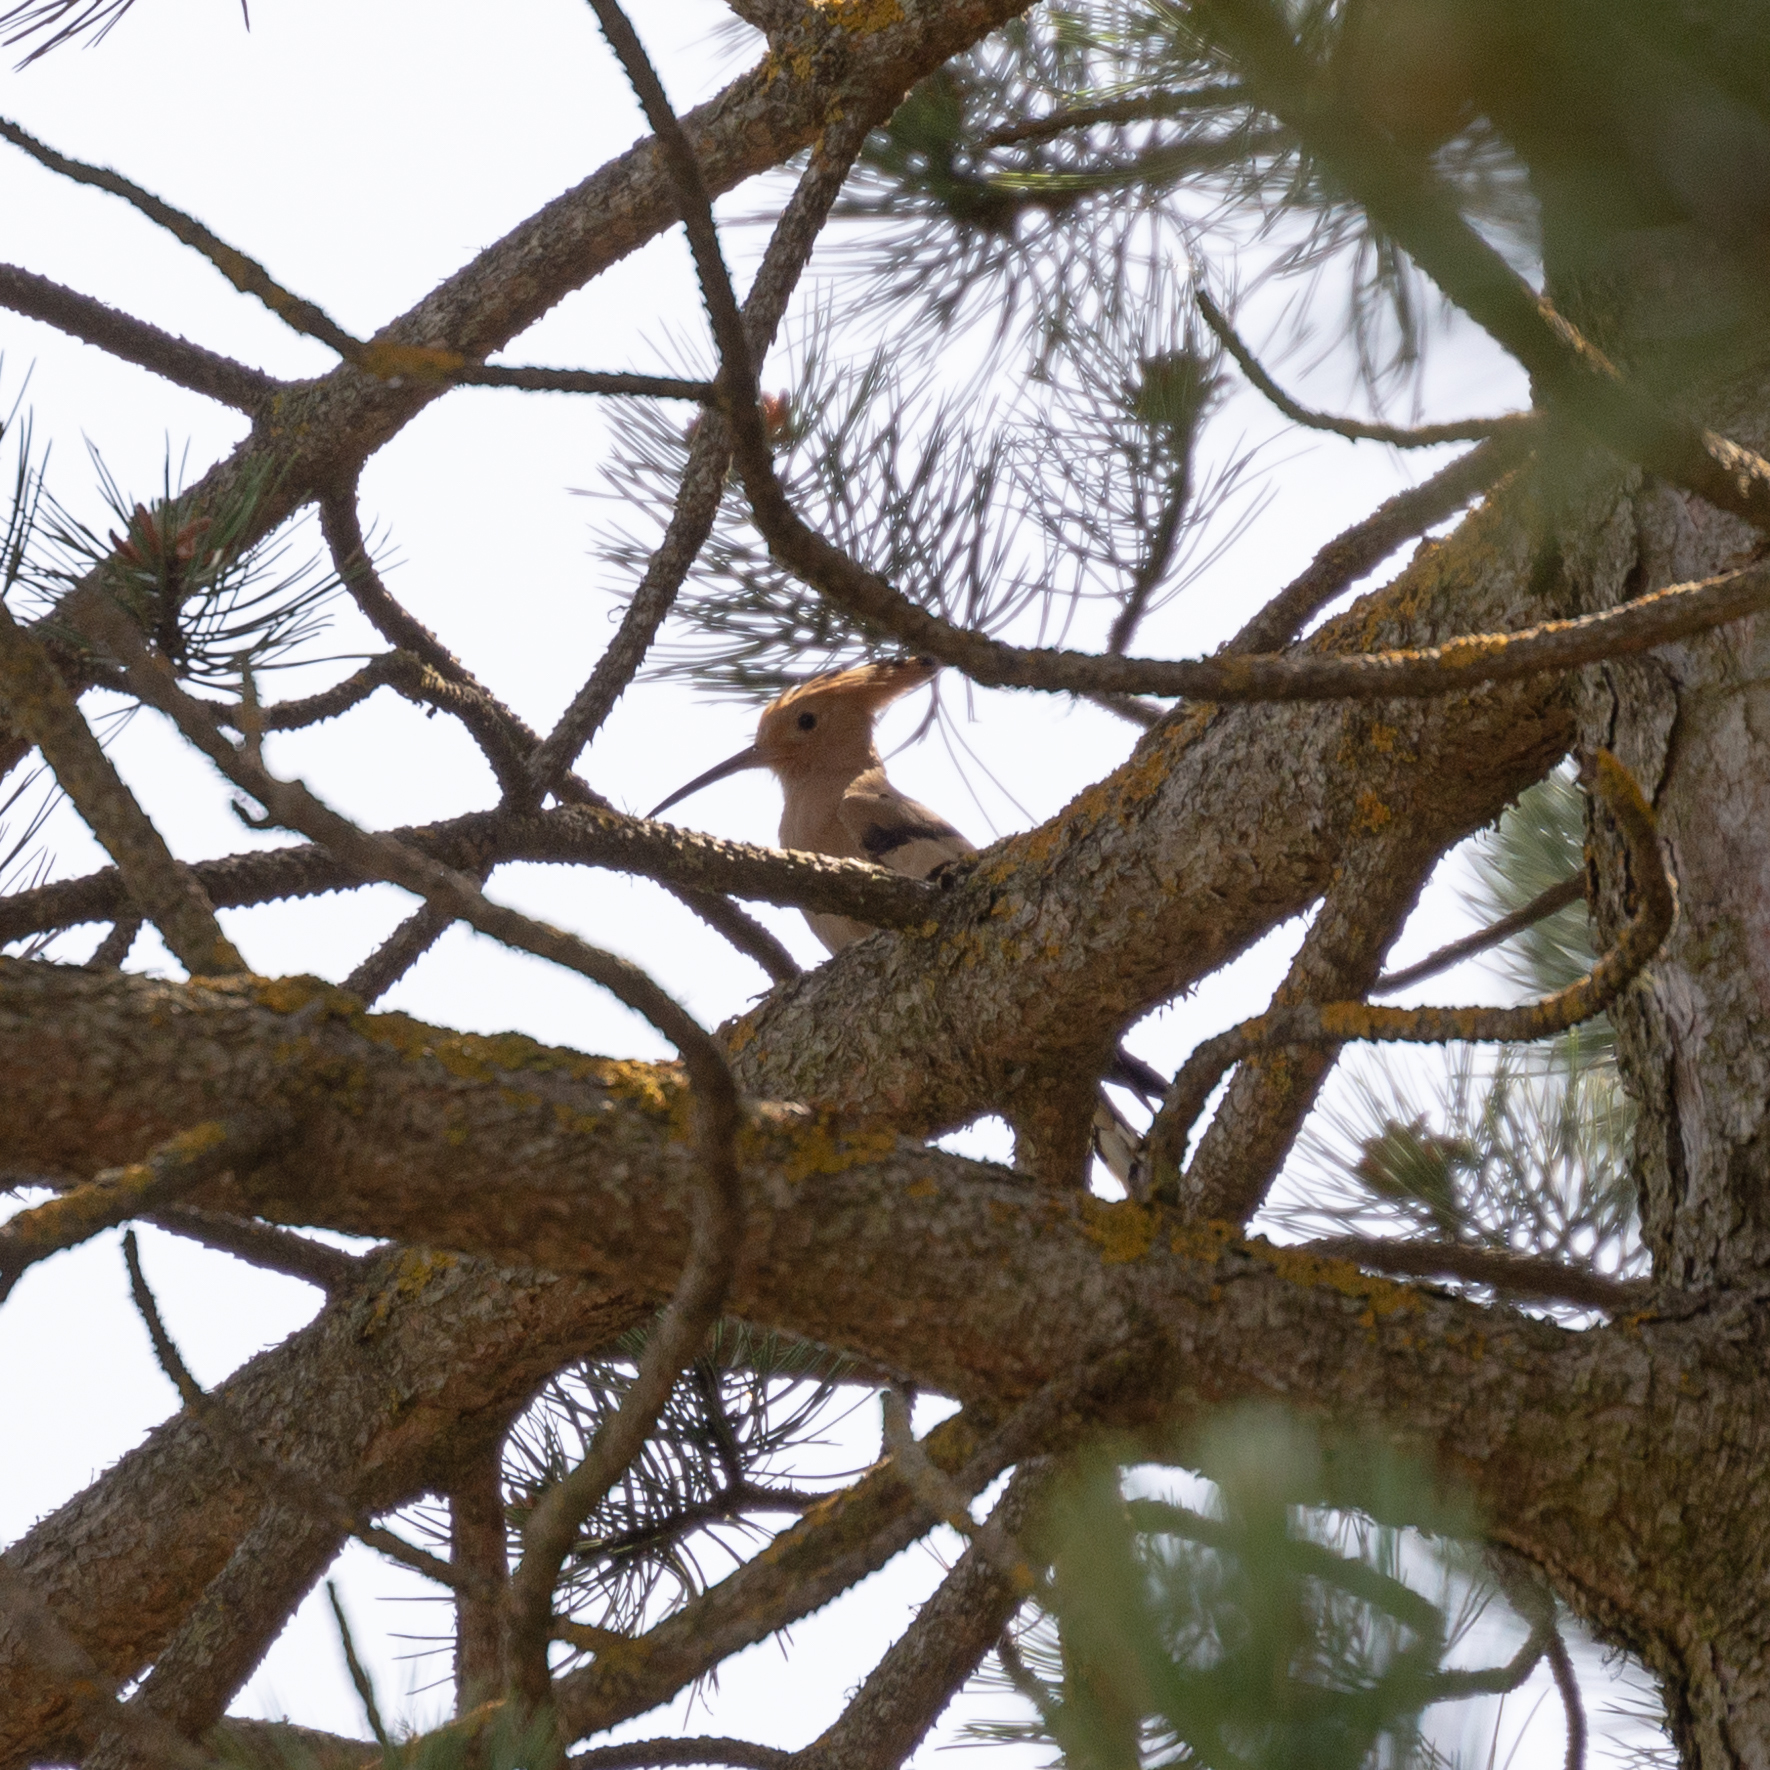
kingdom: Animalia
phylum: Chordata
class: Aves
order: Bucerotiformes
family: Upupidae
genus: Upupa
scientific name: Upupa epops
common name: Eurasian hoopoe
